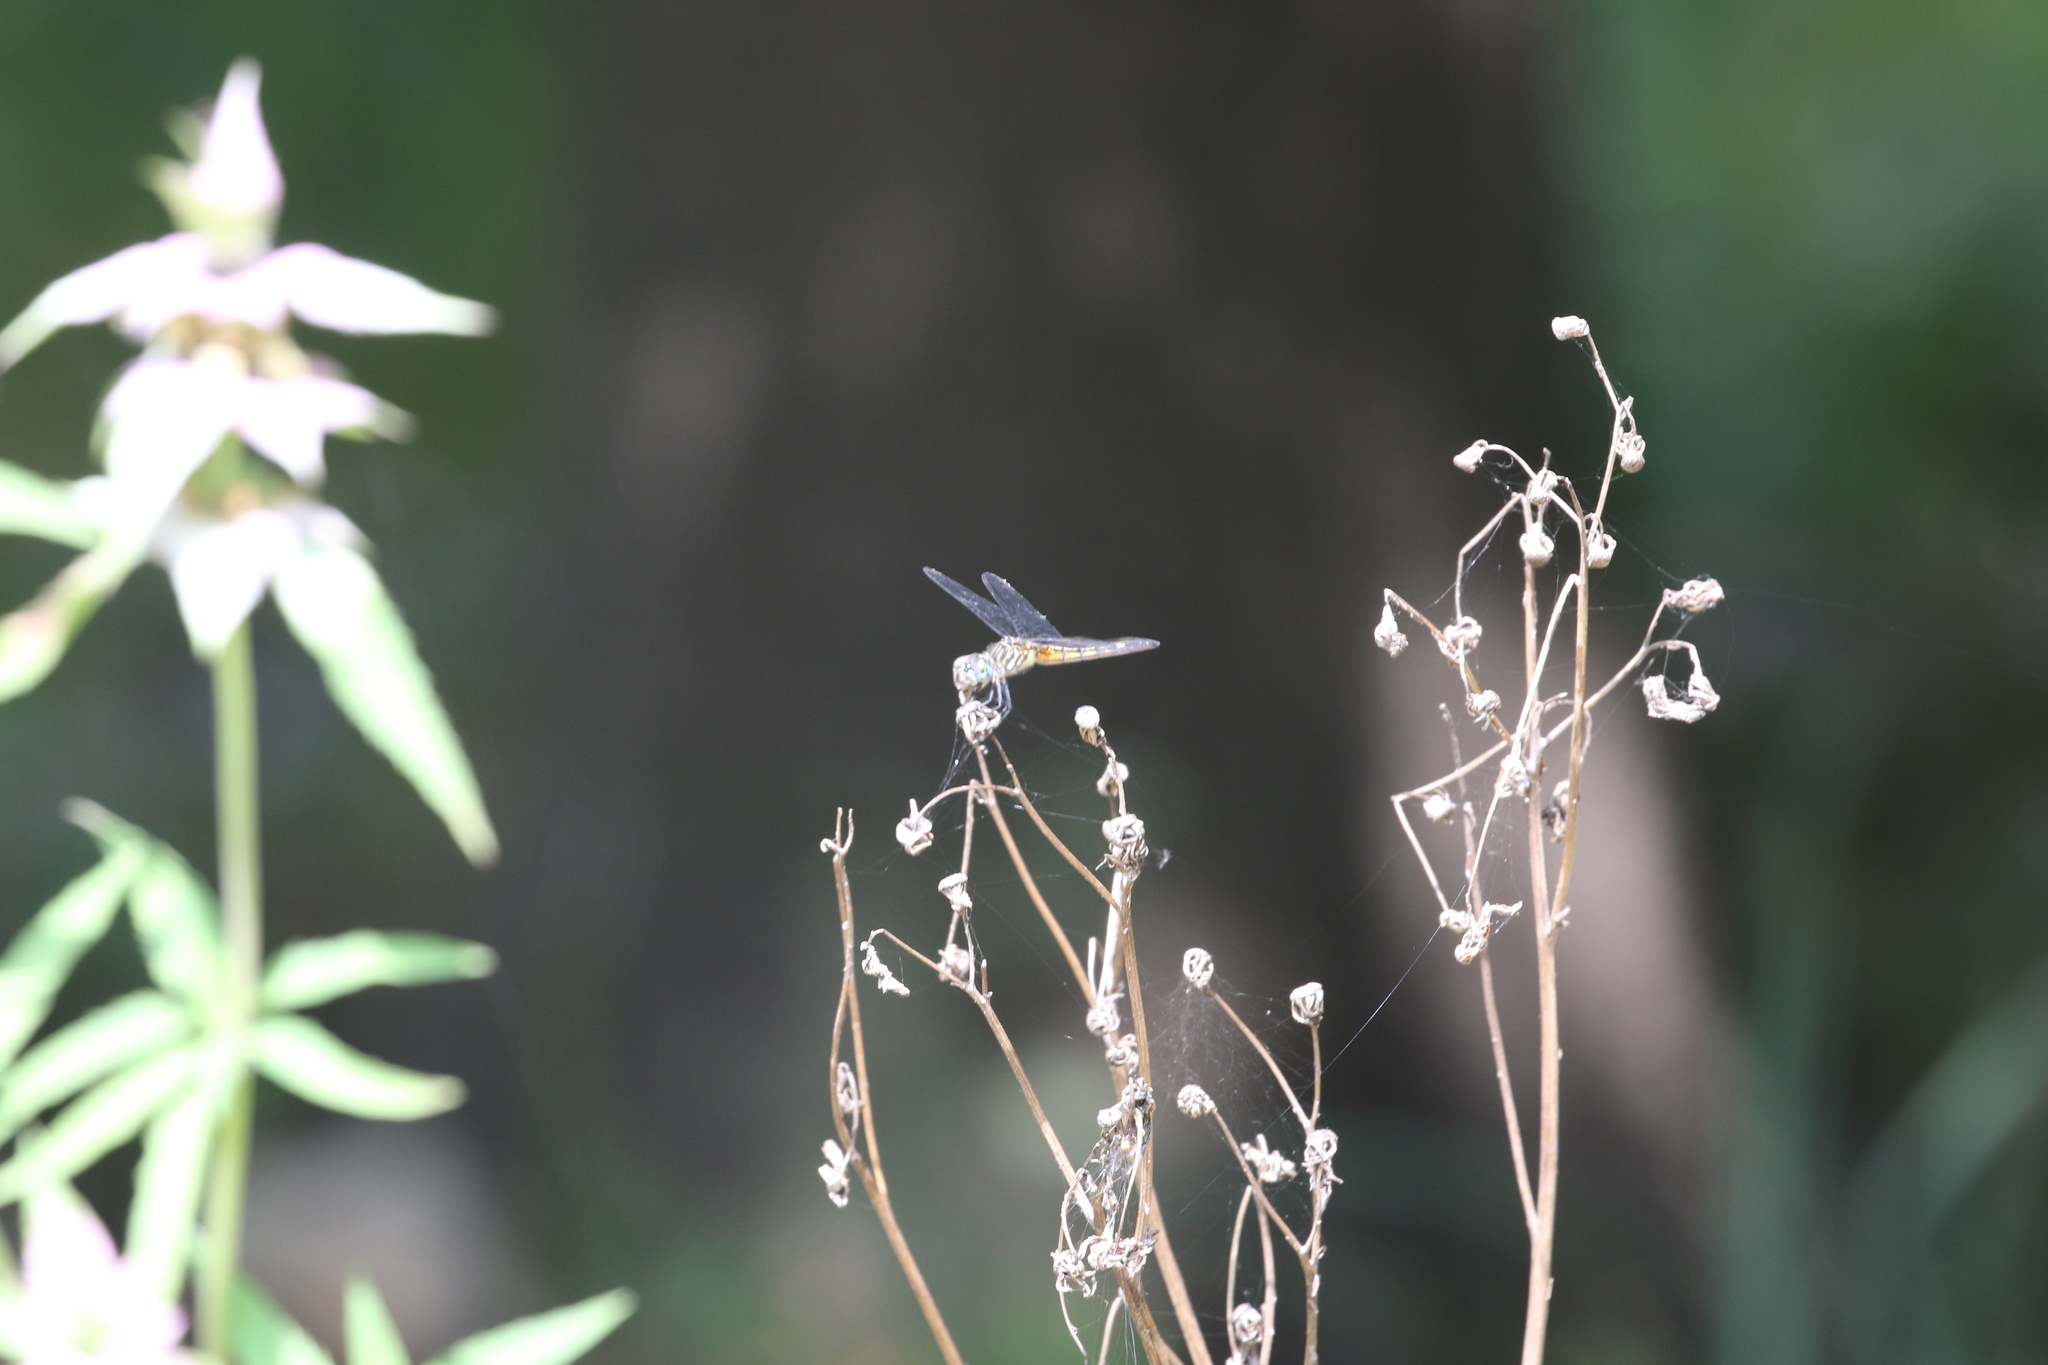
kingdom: Animalia
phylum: Arthropoda
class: Insecta
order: Odonata
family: Libellulidae
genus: Pachydiplax
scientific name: Pachydiplax longipennis
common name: Blue dasher
